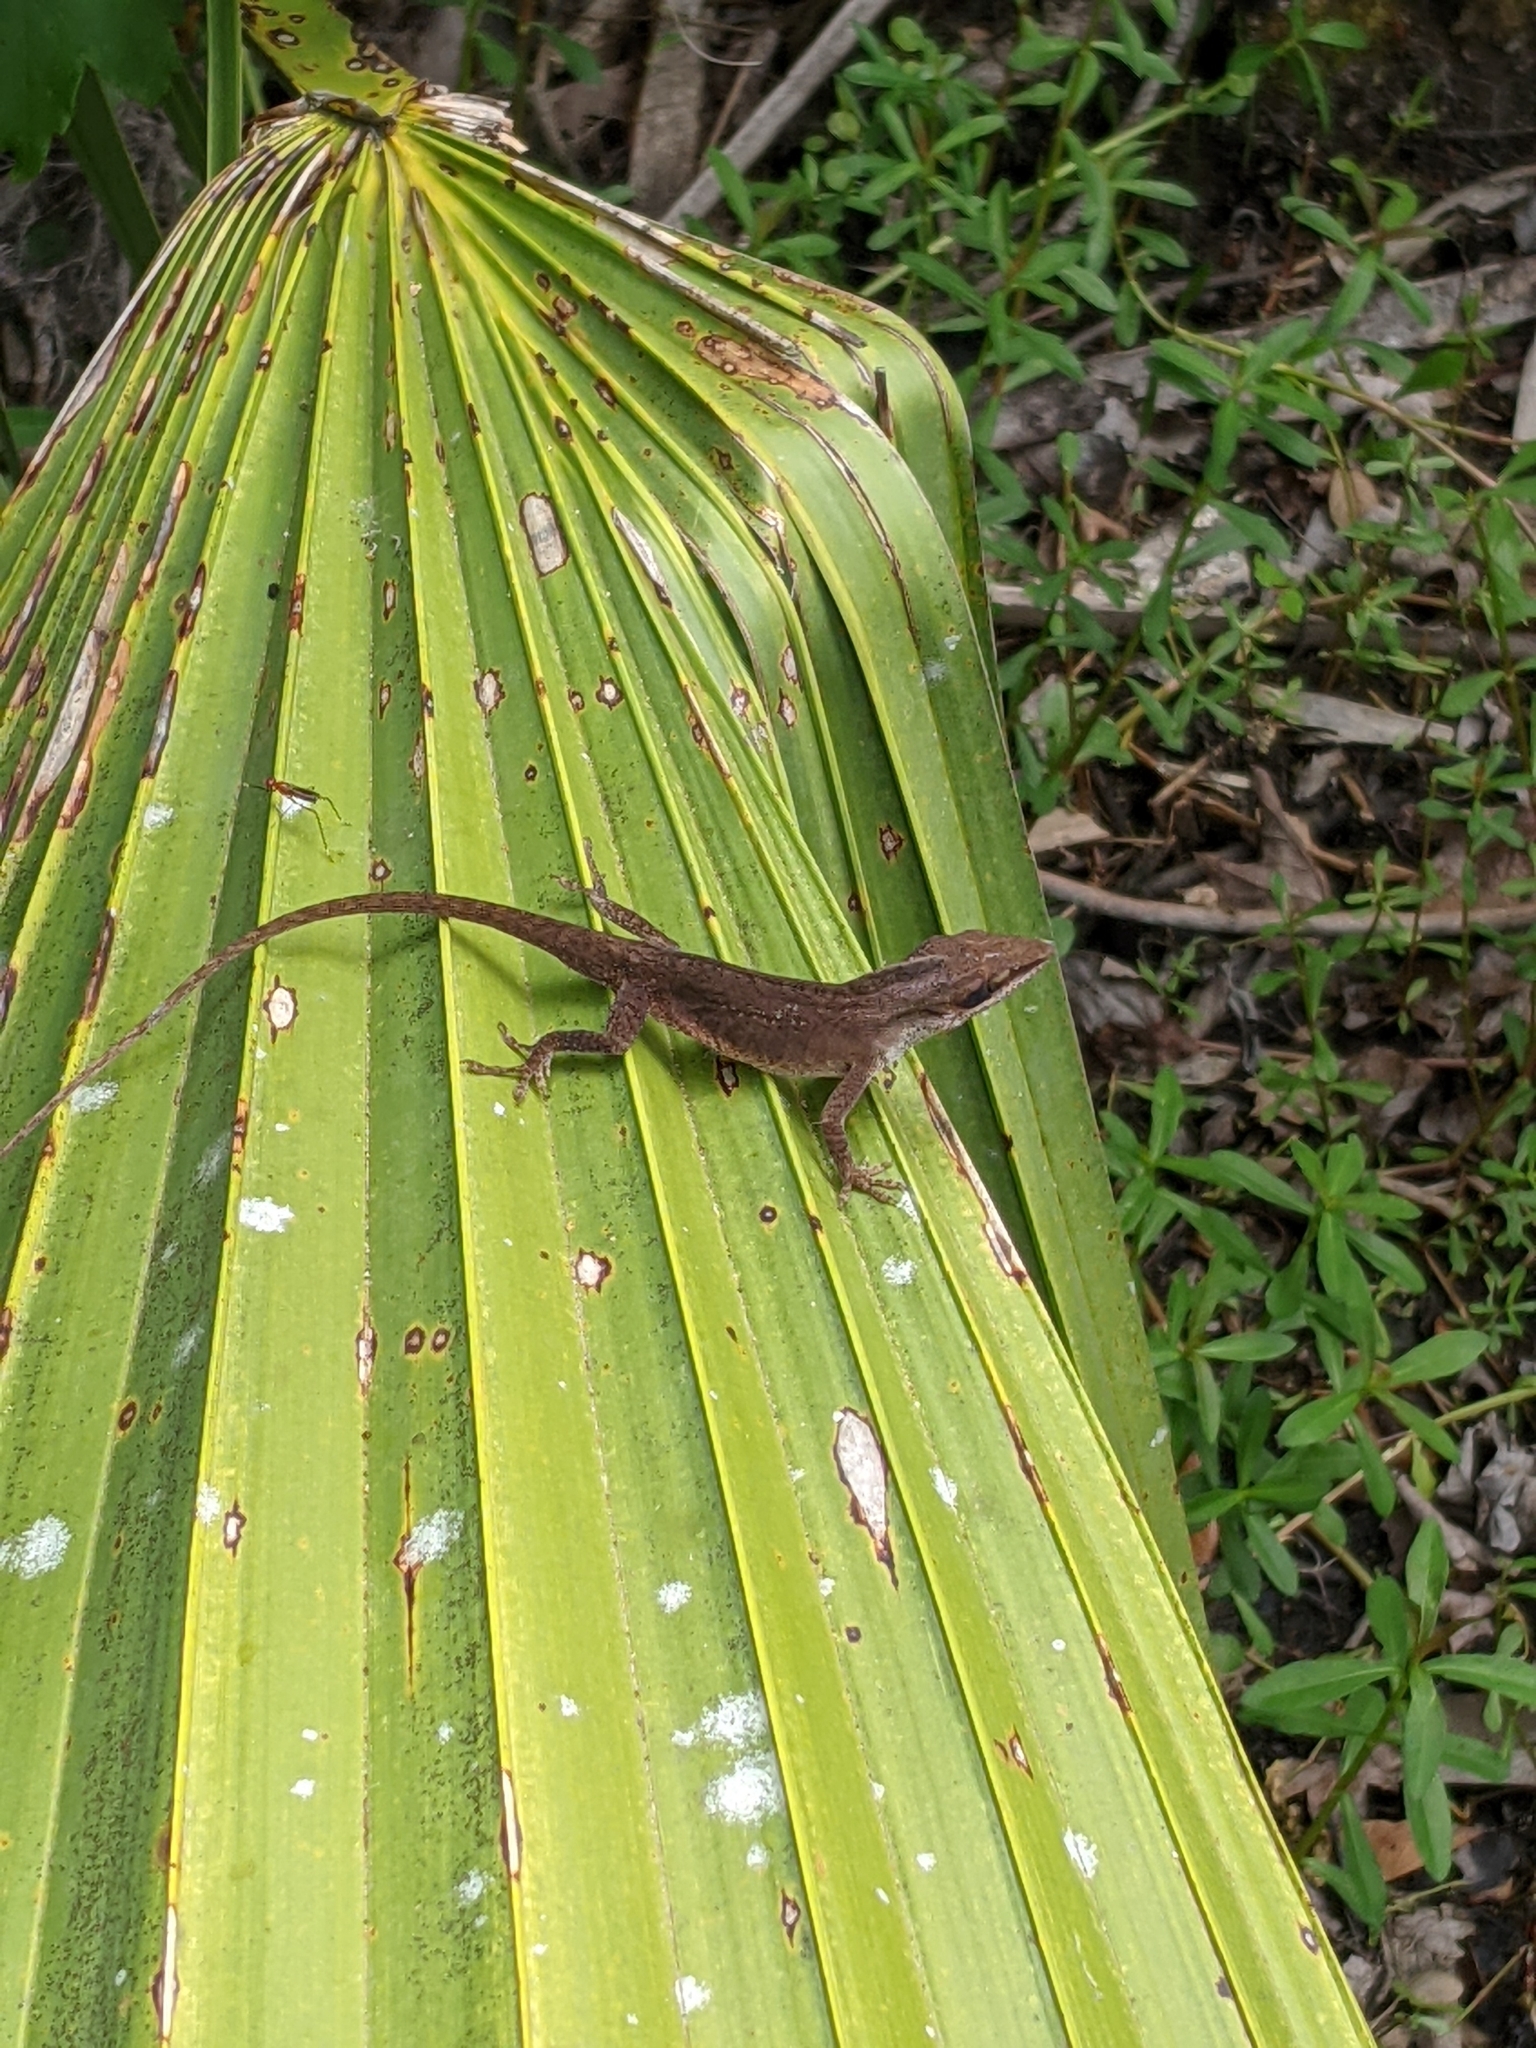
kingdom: Animalia
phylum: Chordata
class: Squamata
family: Dactyloidae
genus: Anolis
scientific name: Anolis carolinensis
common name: Green anole
